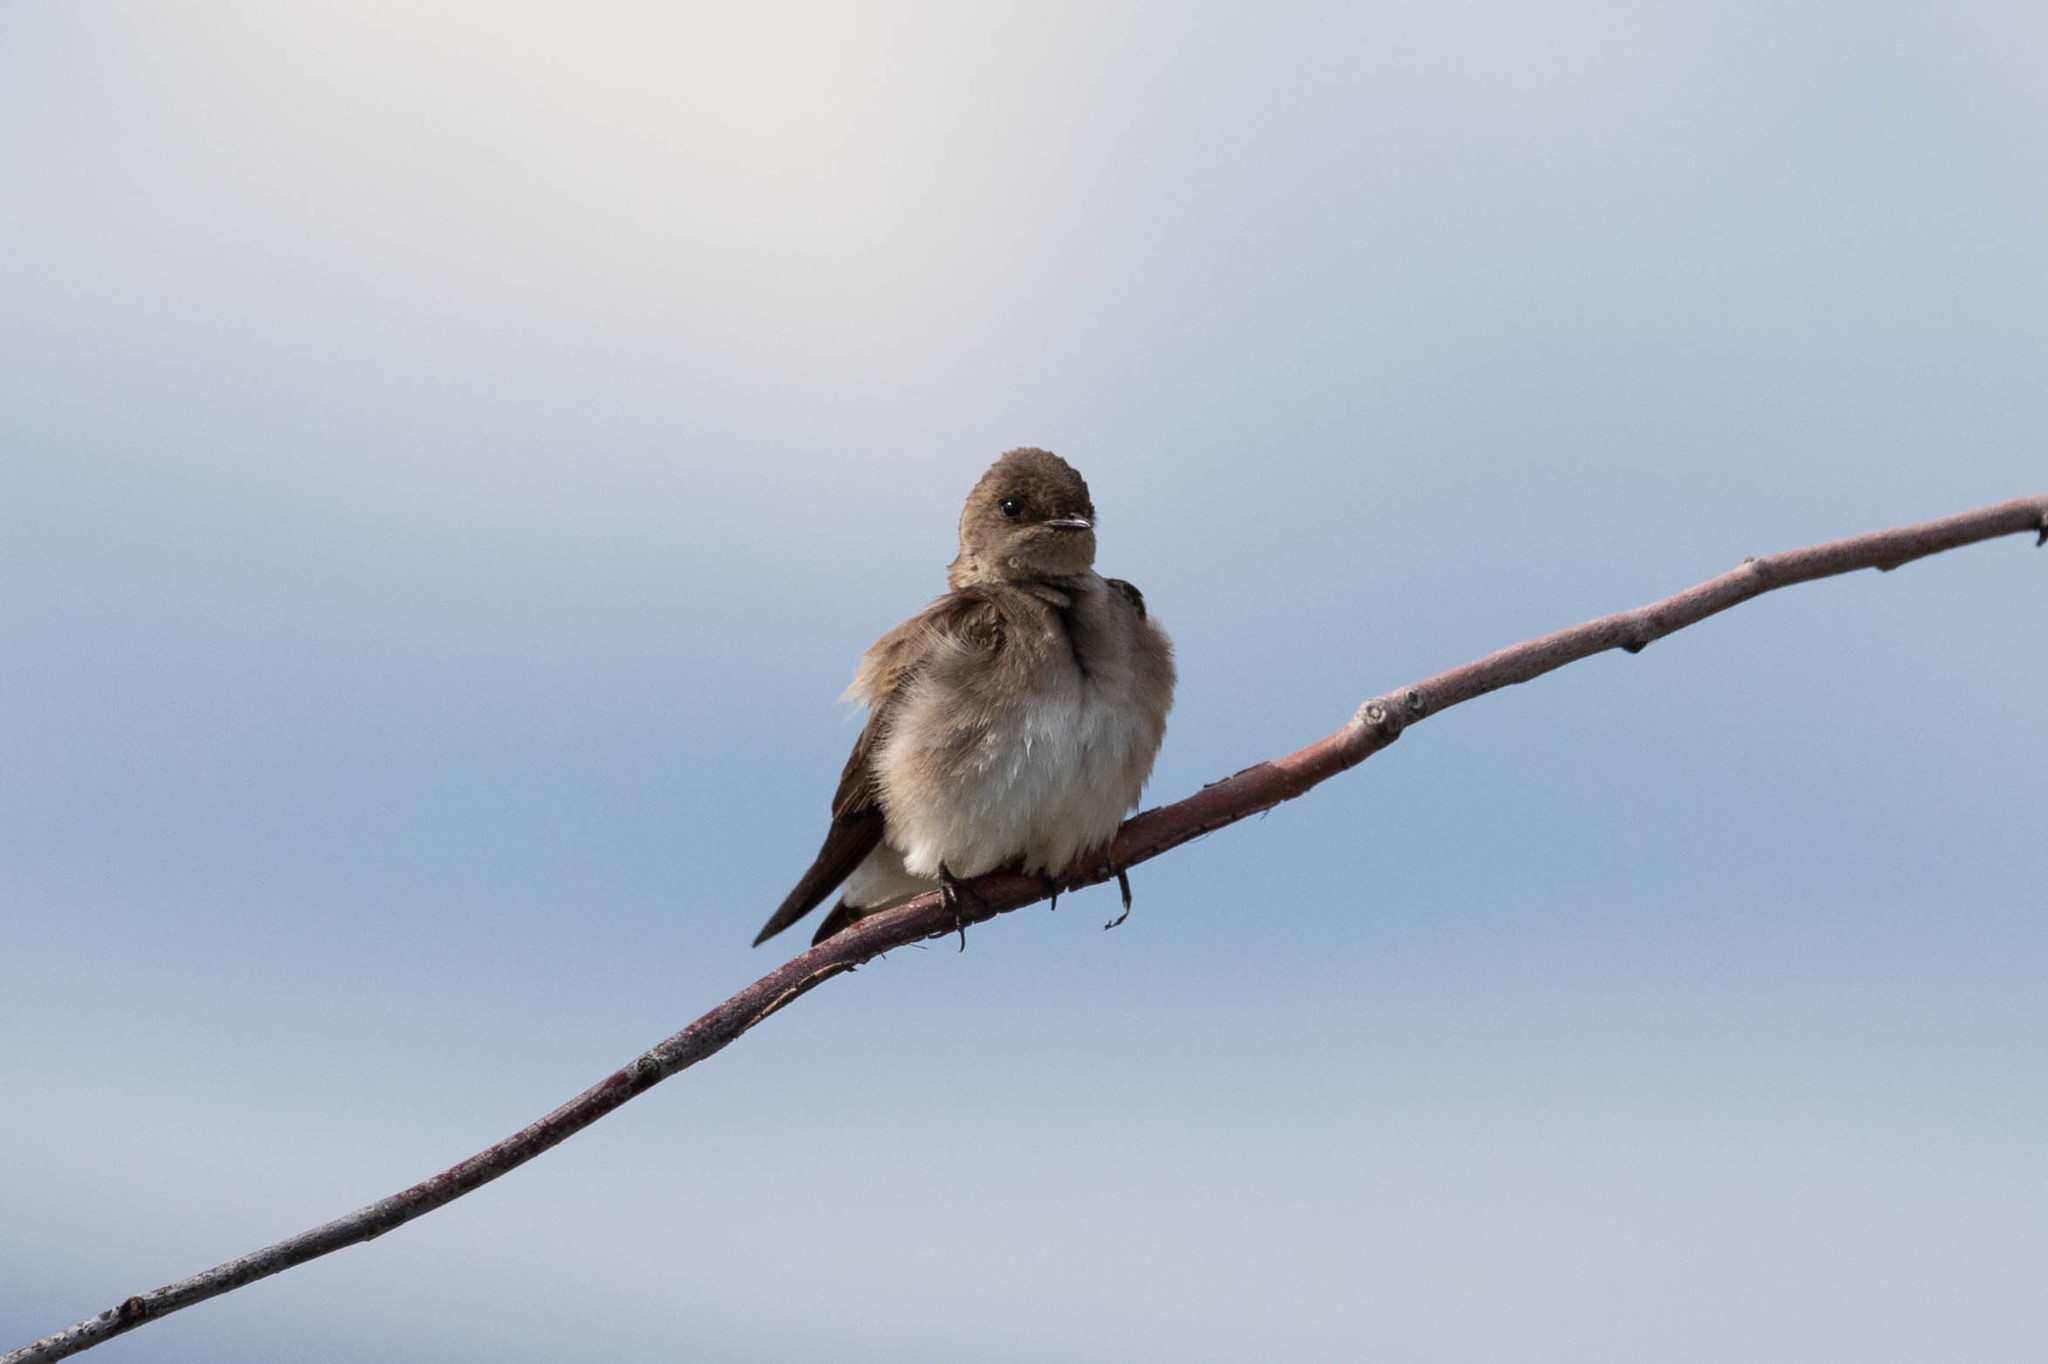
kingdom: Animalia
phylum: Chordata
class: Aves
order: Passeriformes
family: Hirundinidae
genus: Stelgidopteryx
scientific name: Stelgidopteryx serripennis
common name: Northern rough-winged swallow
